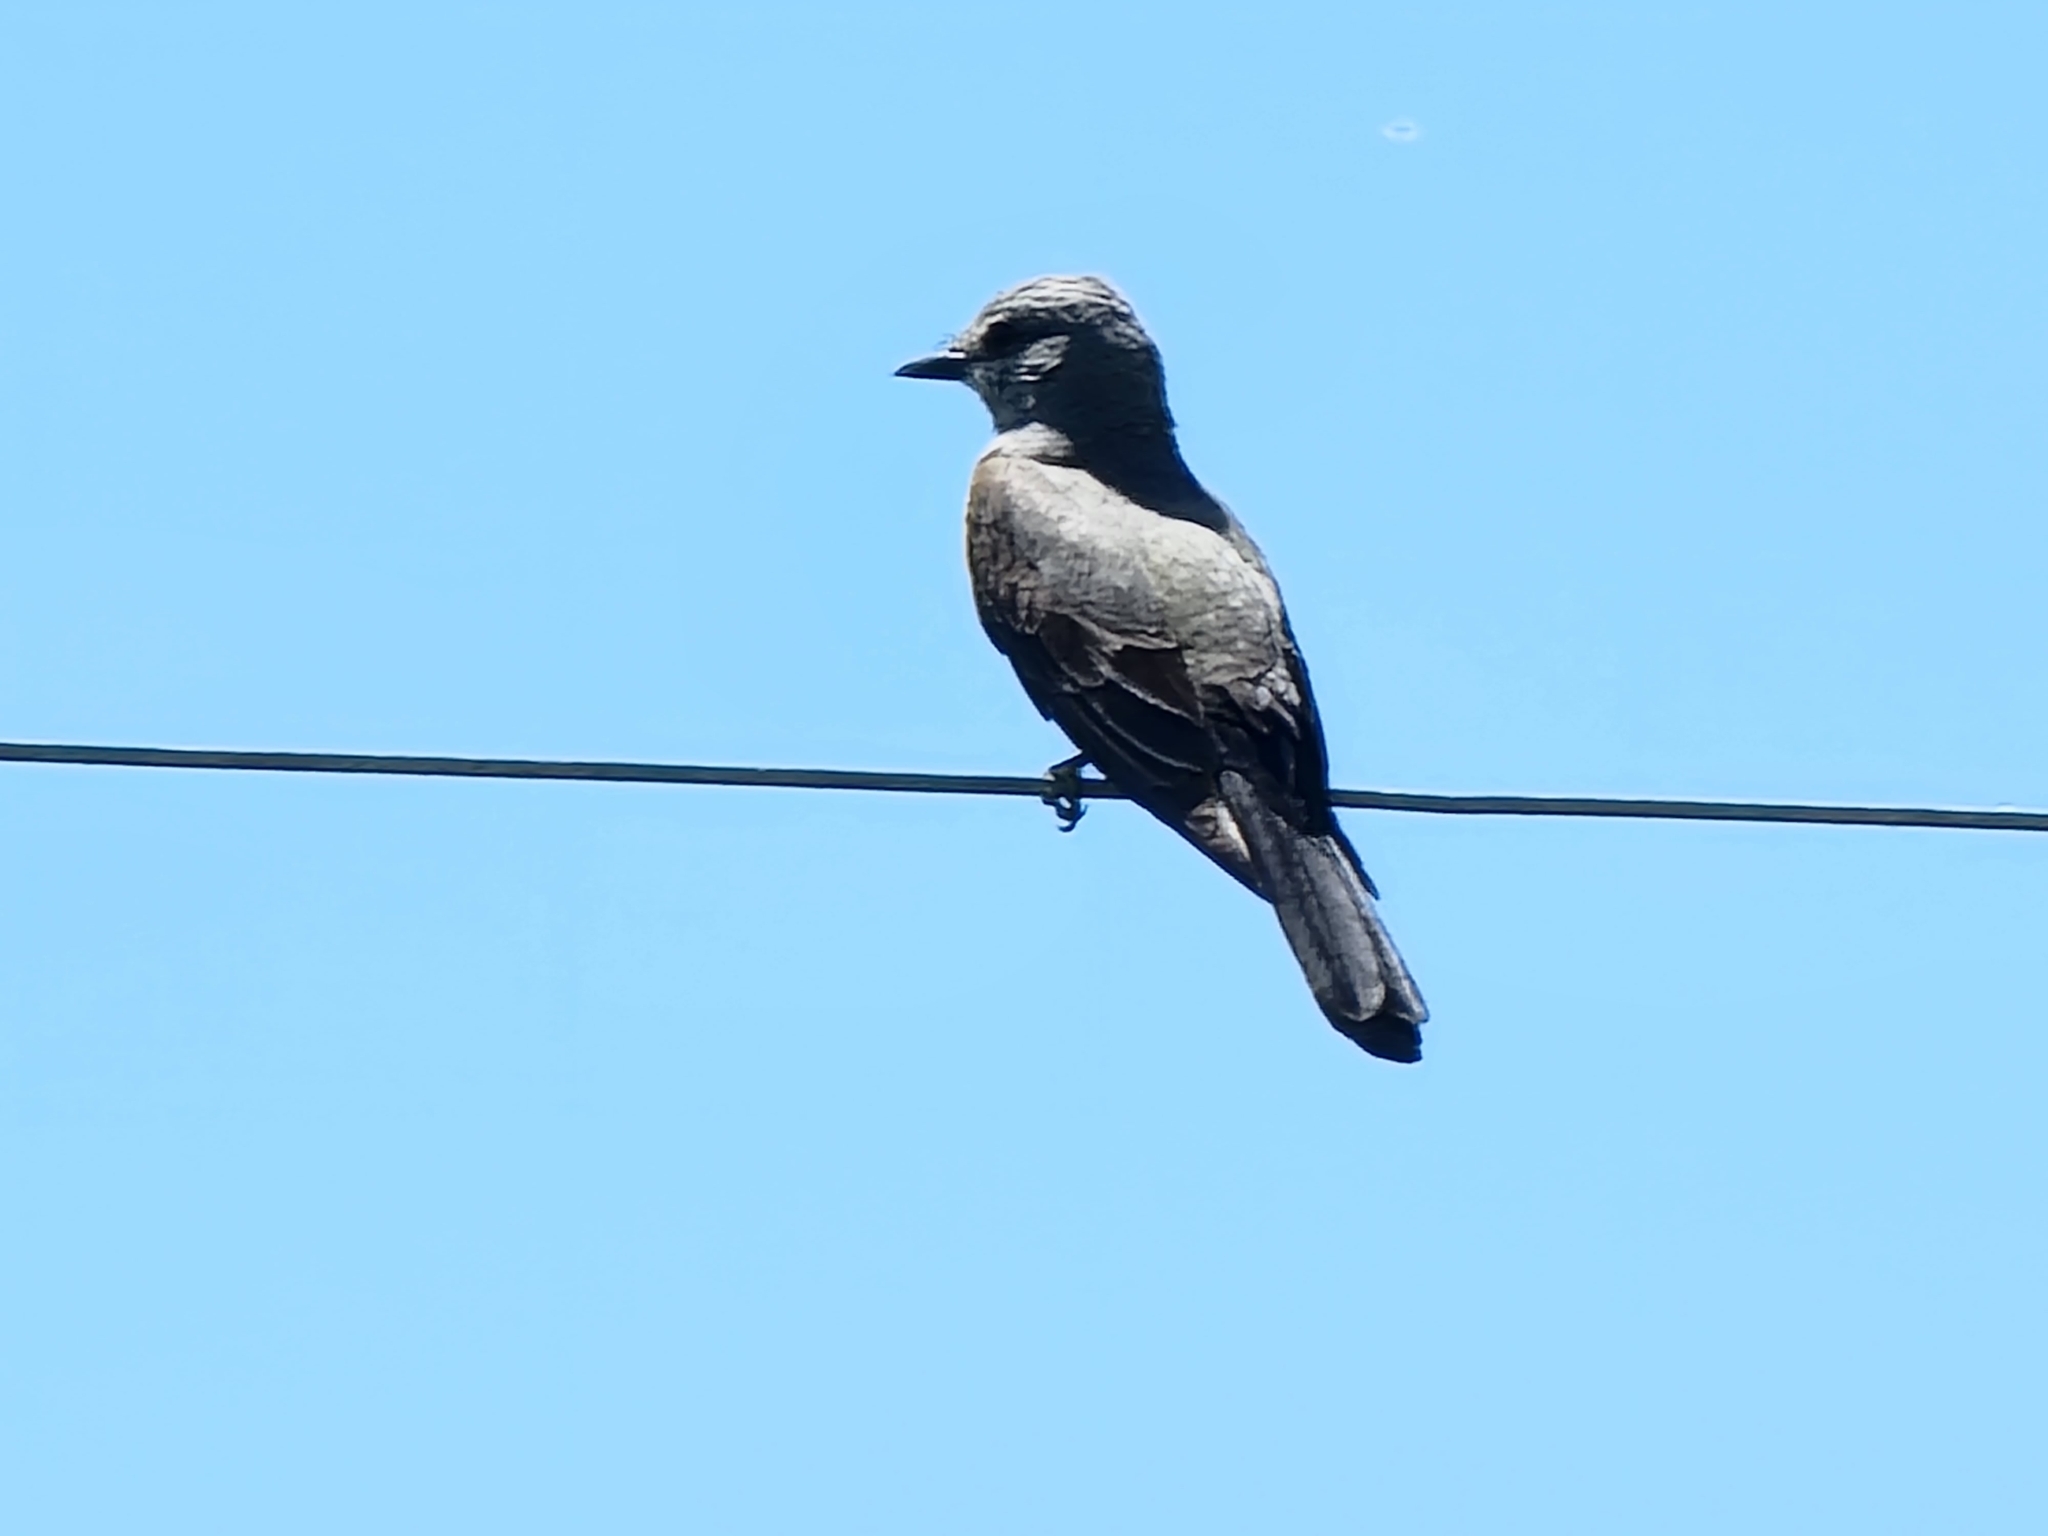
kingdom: Animalia
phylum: Chordata
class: Aves
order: Passeriformes
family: Tyrannidae
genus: Tyrannus
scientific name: Tyrannus verticalis
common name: Western kingbird
